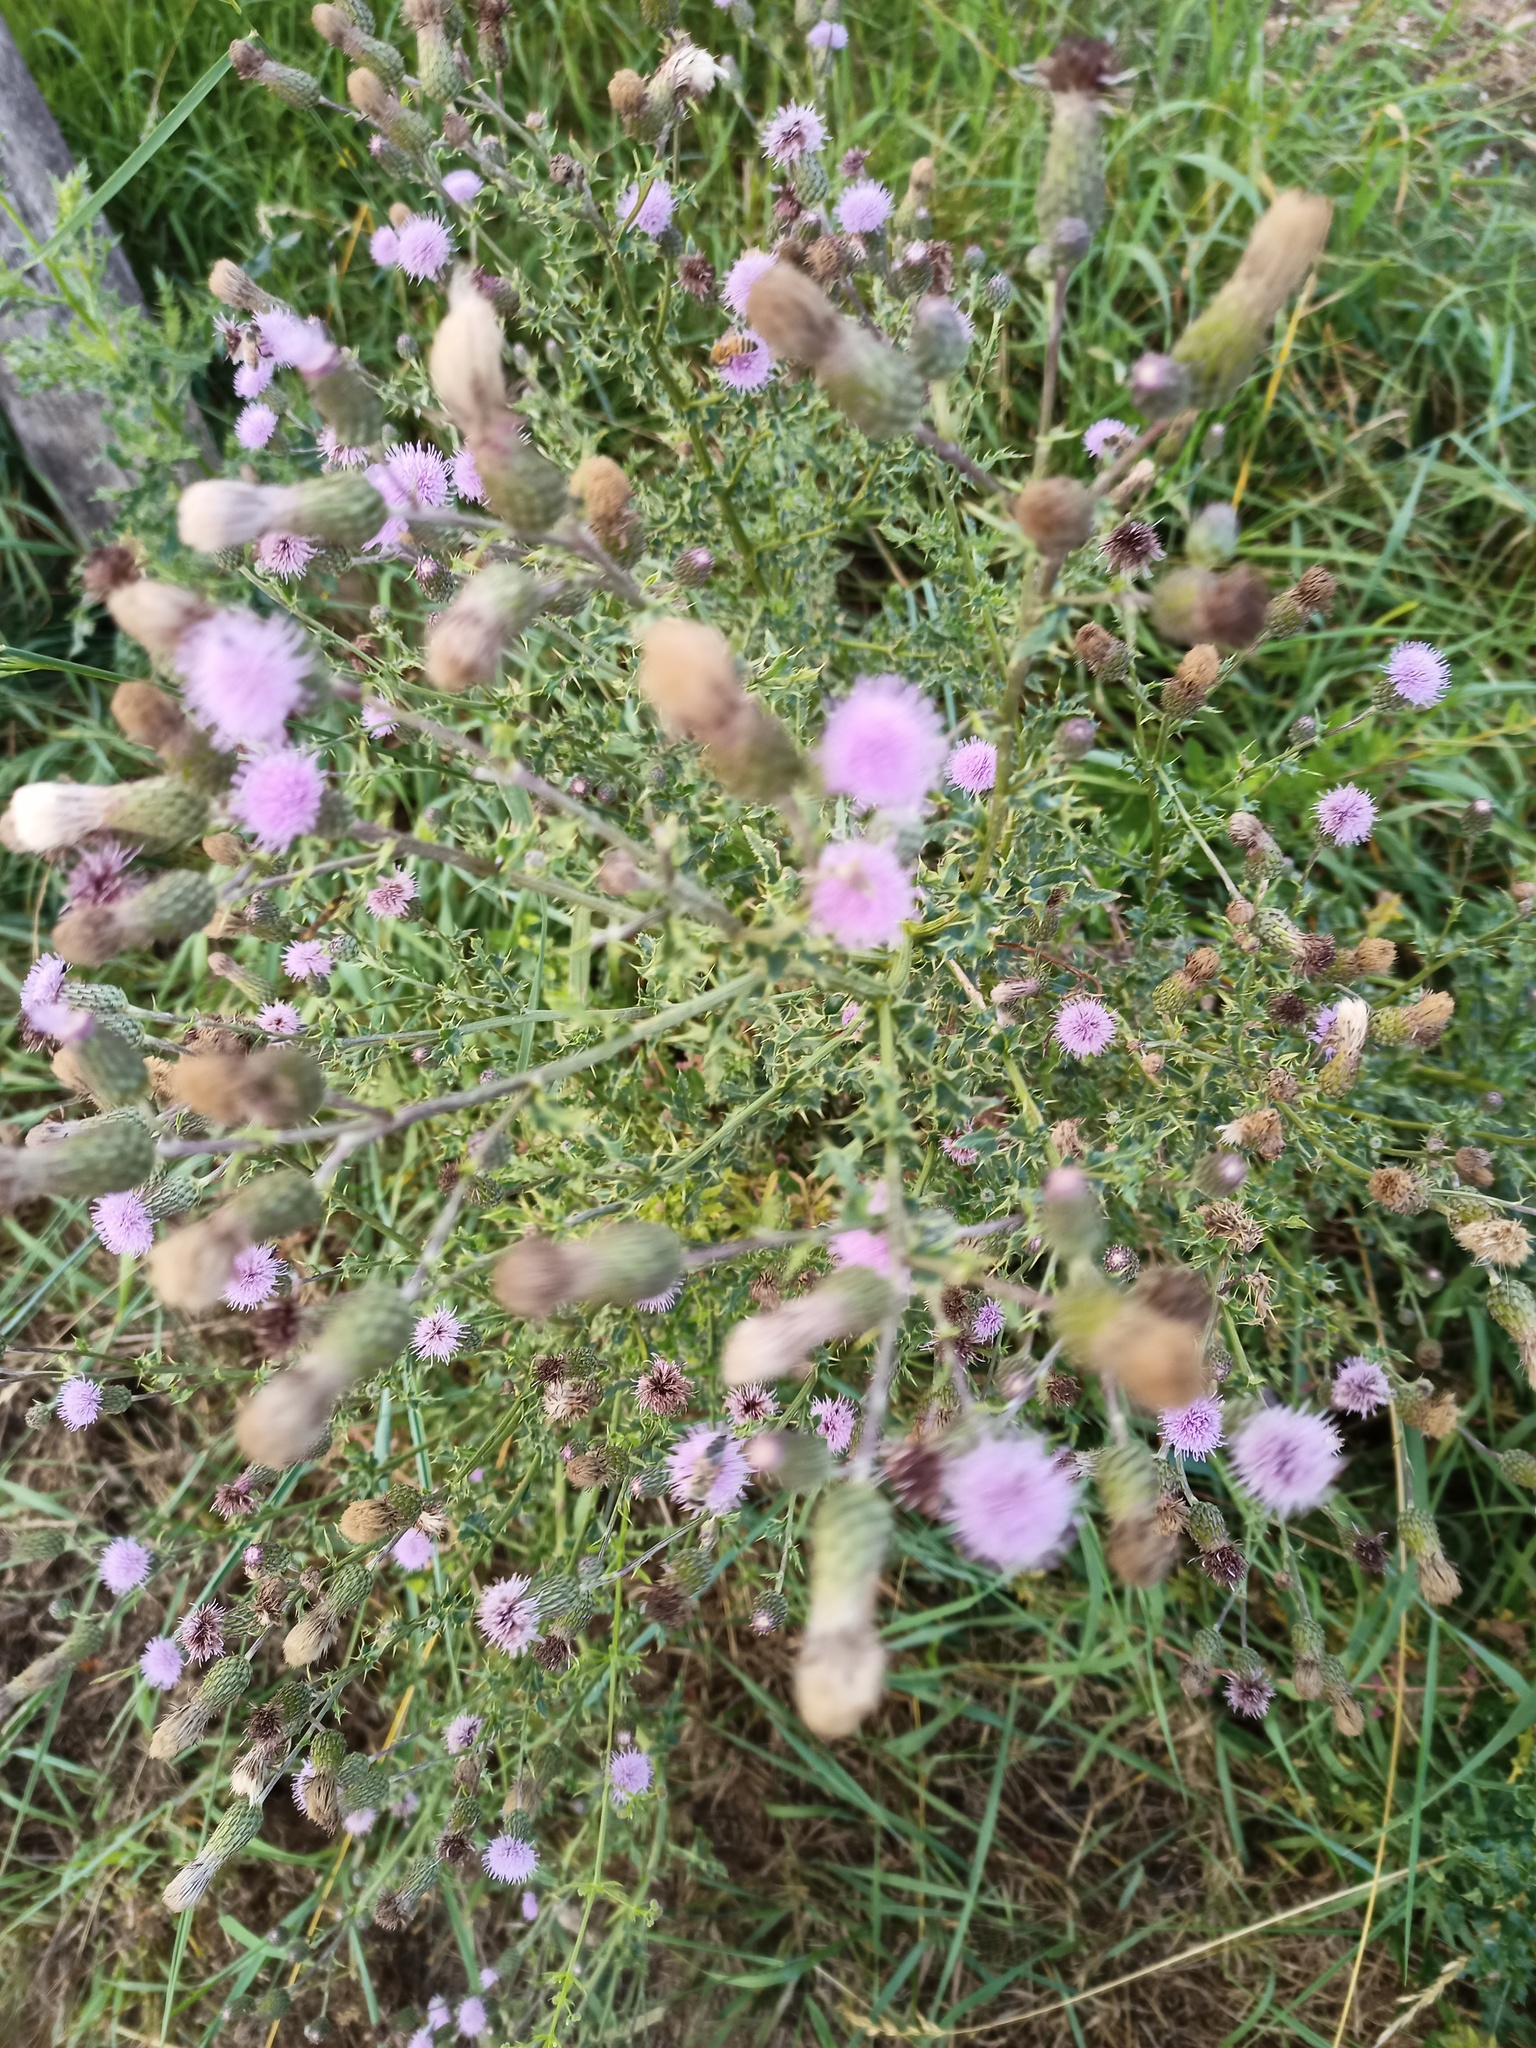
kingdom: Plantae
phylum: Tracheophyta
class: Magnoliopsida
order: Asterales
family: Asteraceae
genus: Cirsium
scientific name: Cirsium arvense
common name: Creeping thistle
